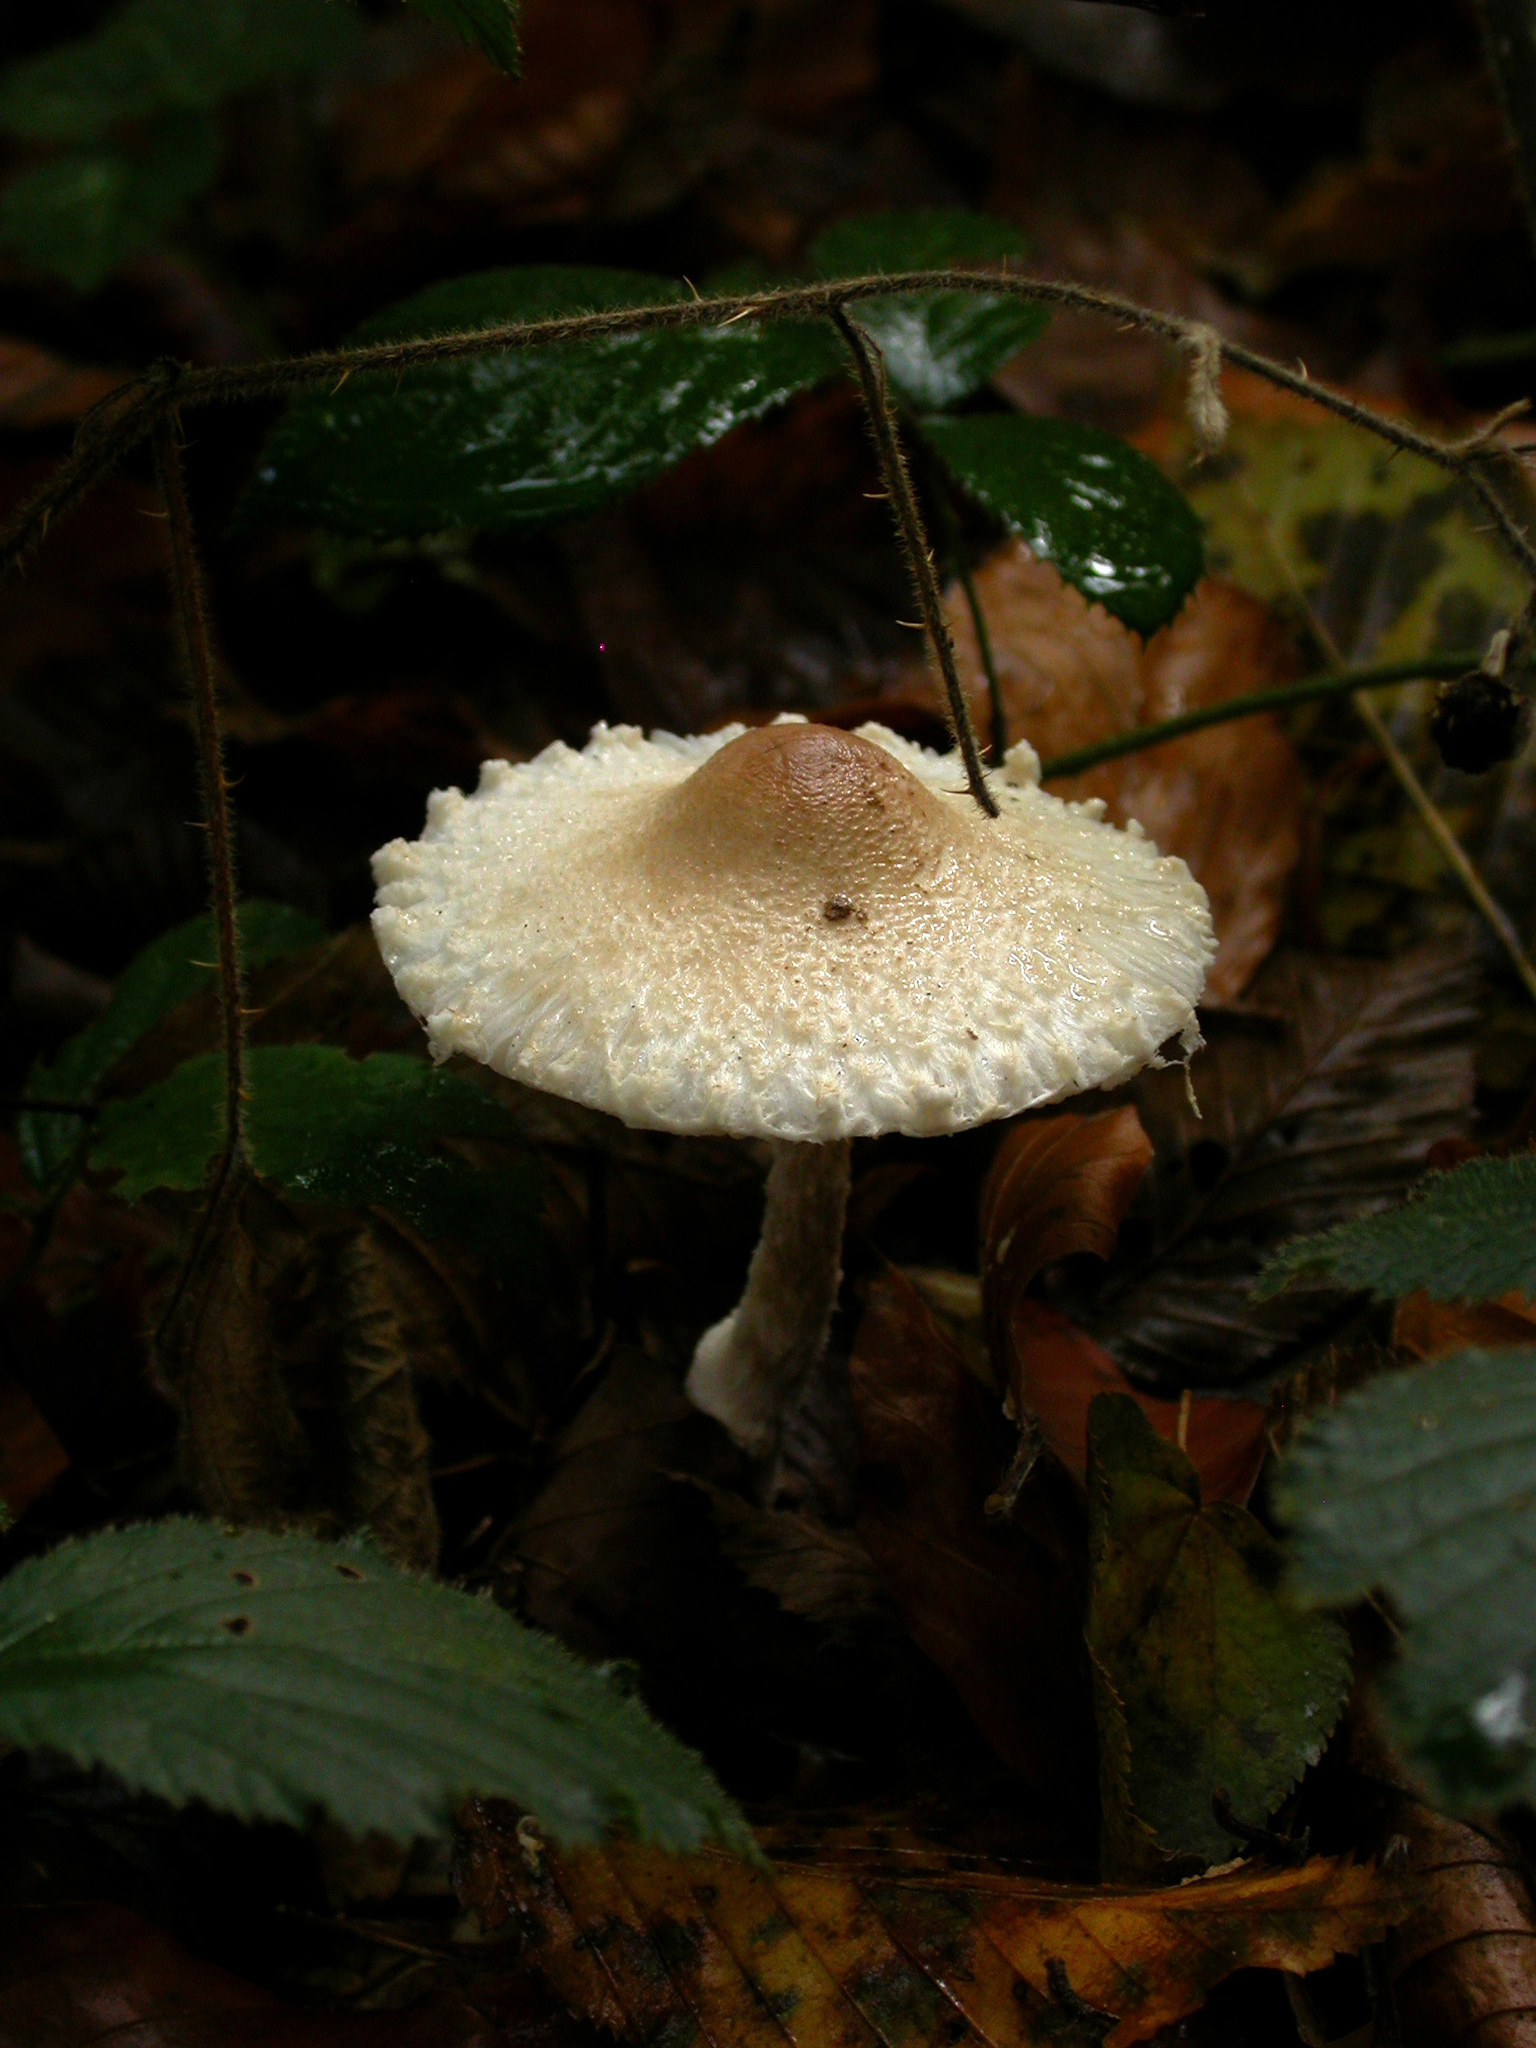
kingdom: Fungi
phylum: Basidiomycota
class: Agaricomycetes
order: Agaricales
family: Agaricaceae
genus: Lepiota
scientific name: Lepiota clypeolaria
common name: Shield dapperling
